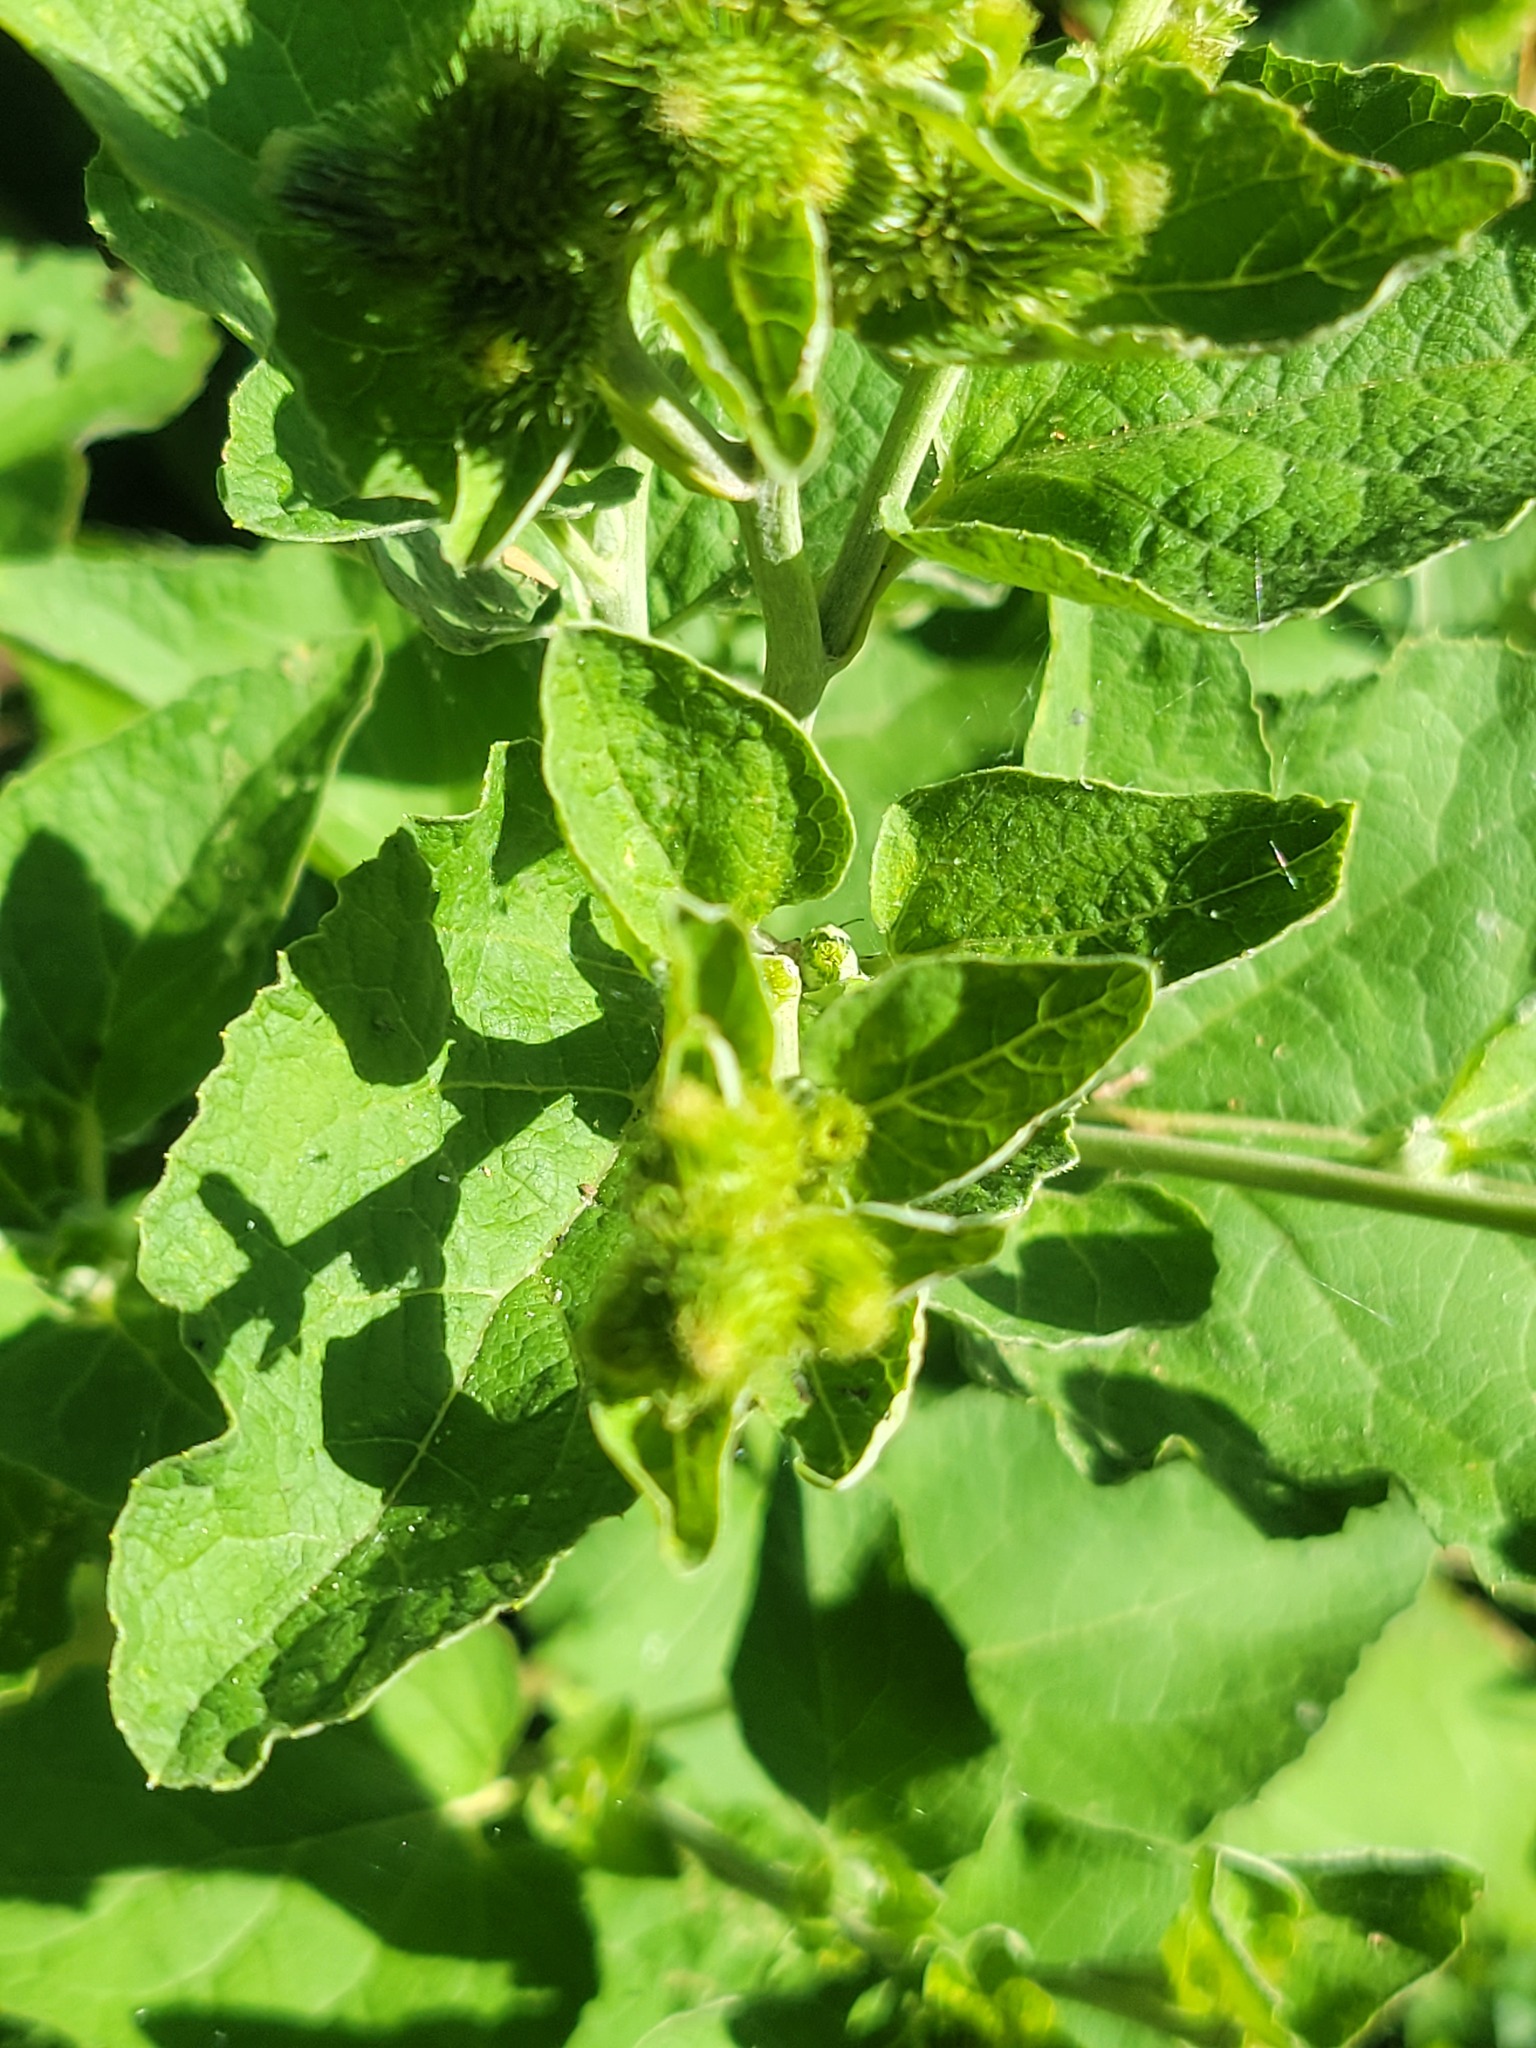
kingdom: Plantae
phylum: Tracheophyta
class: Magnoliopsida
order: Asterales
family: Asteraceae
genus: Arctium
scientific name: Arctium minus
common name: Lesser burdock
